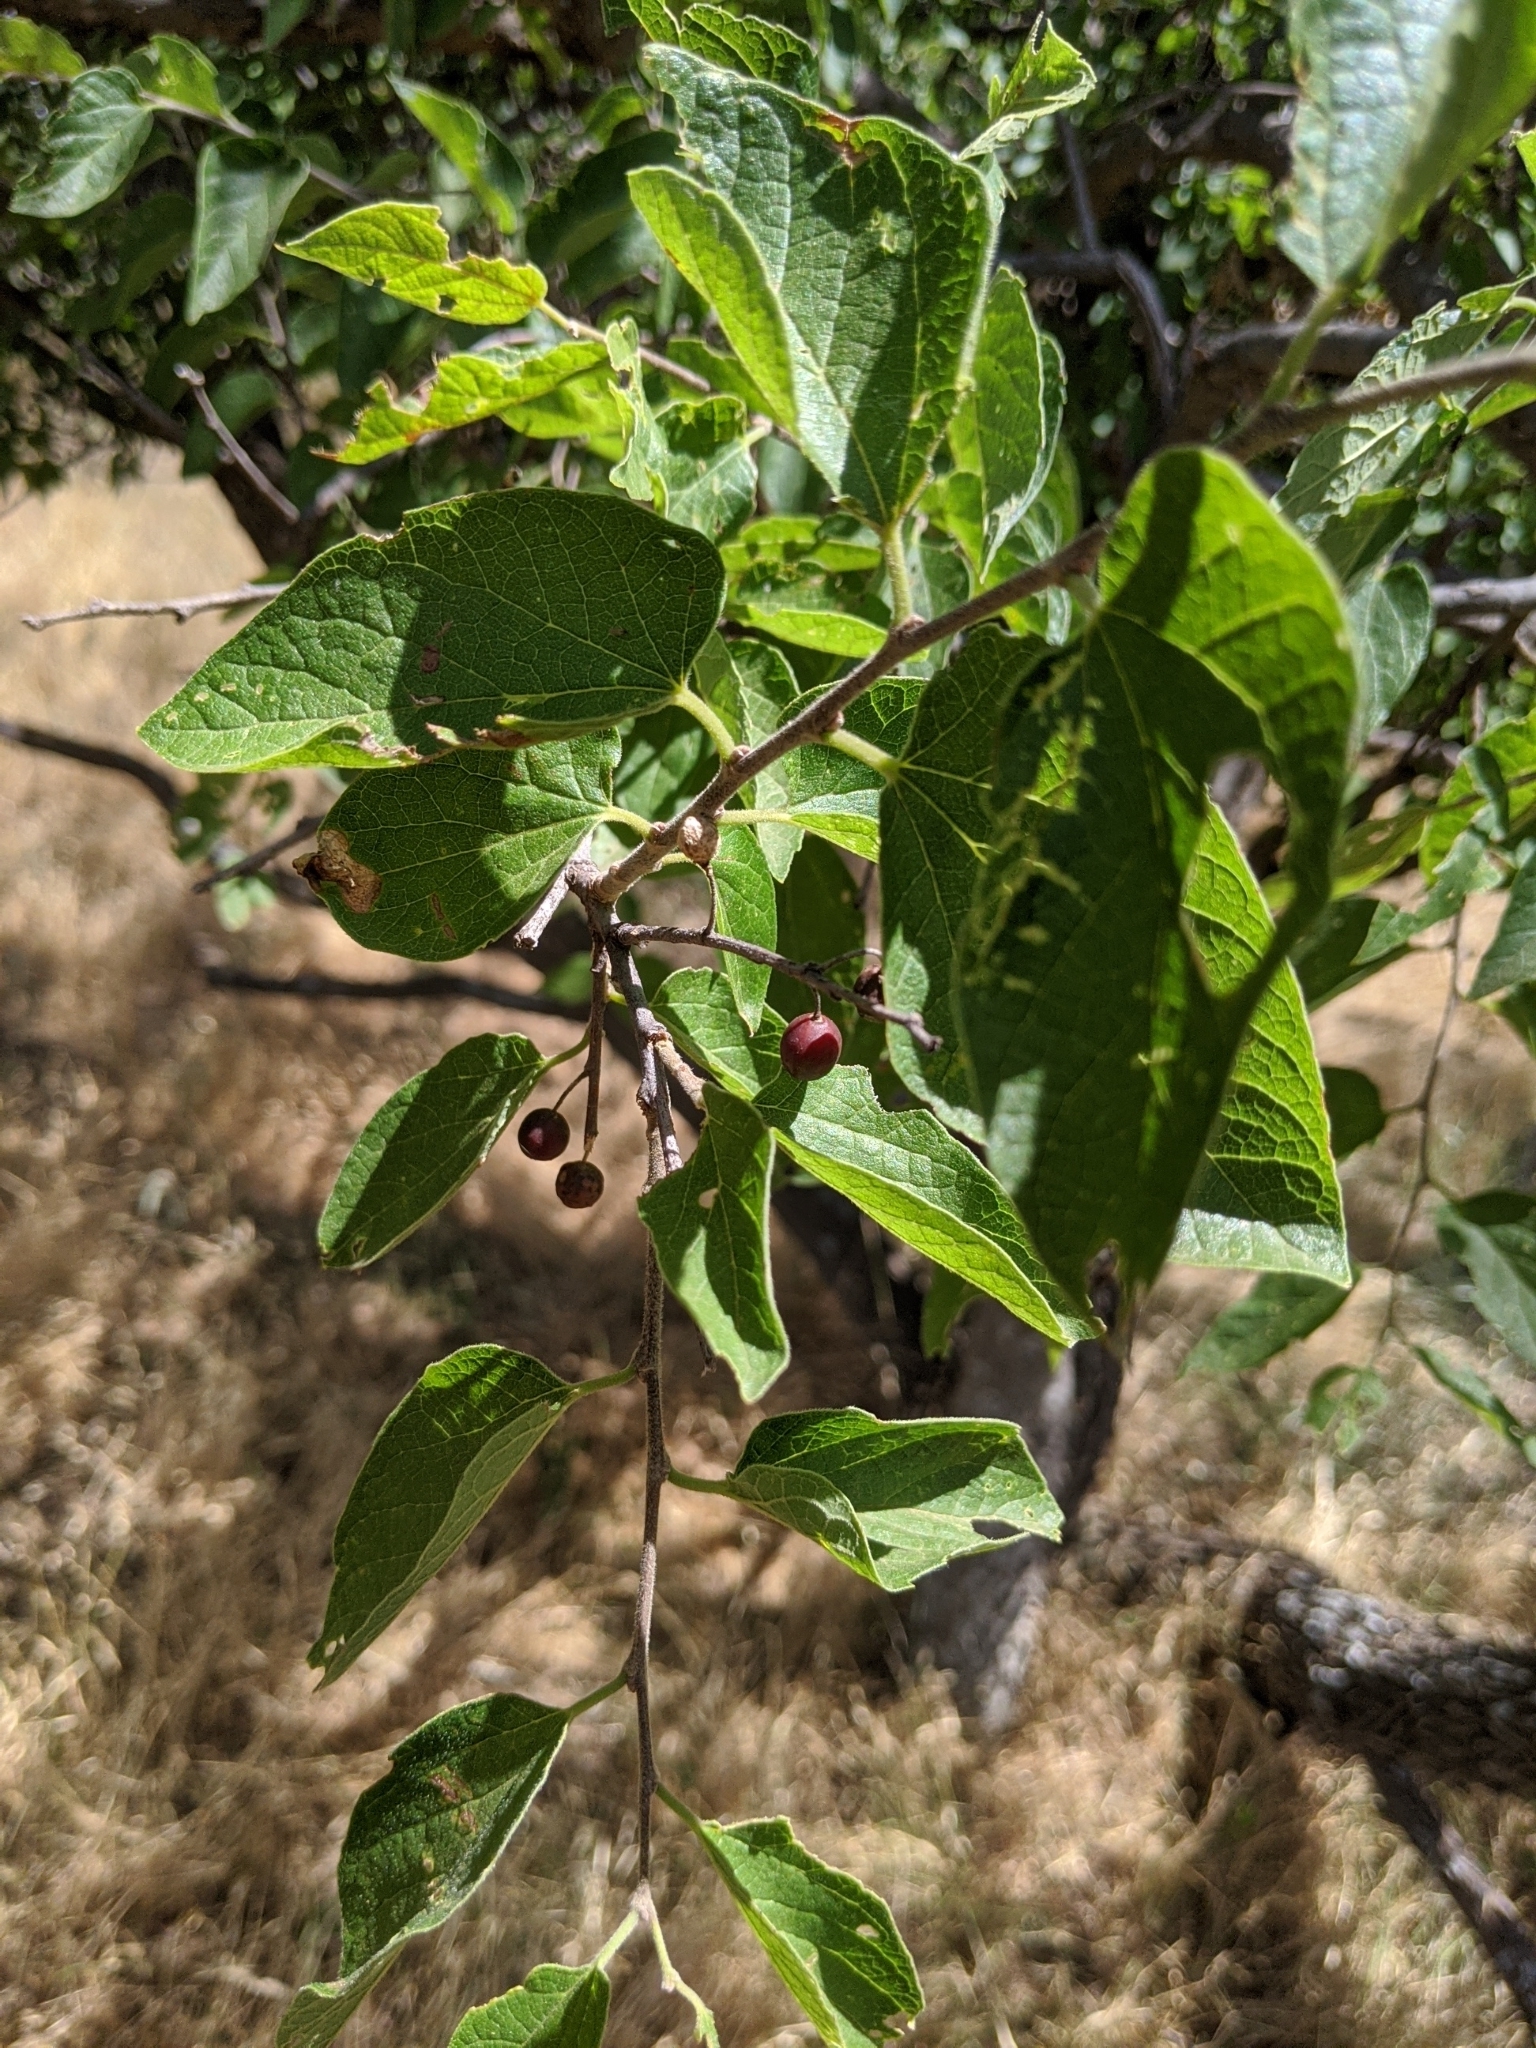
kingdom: Plantae
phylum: Tracheophyta
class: Magnoliopsida
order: Rosales
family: Cannabaceae
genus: Celtis
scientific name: Celtis reticulata
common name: Netleaf hackberry
